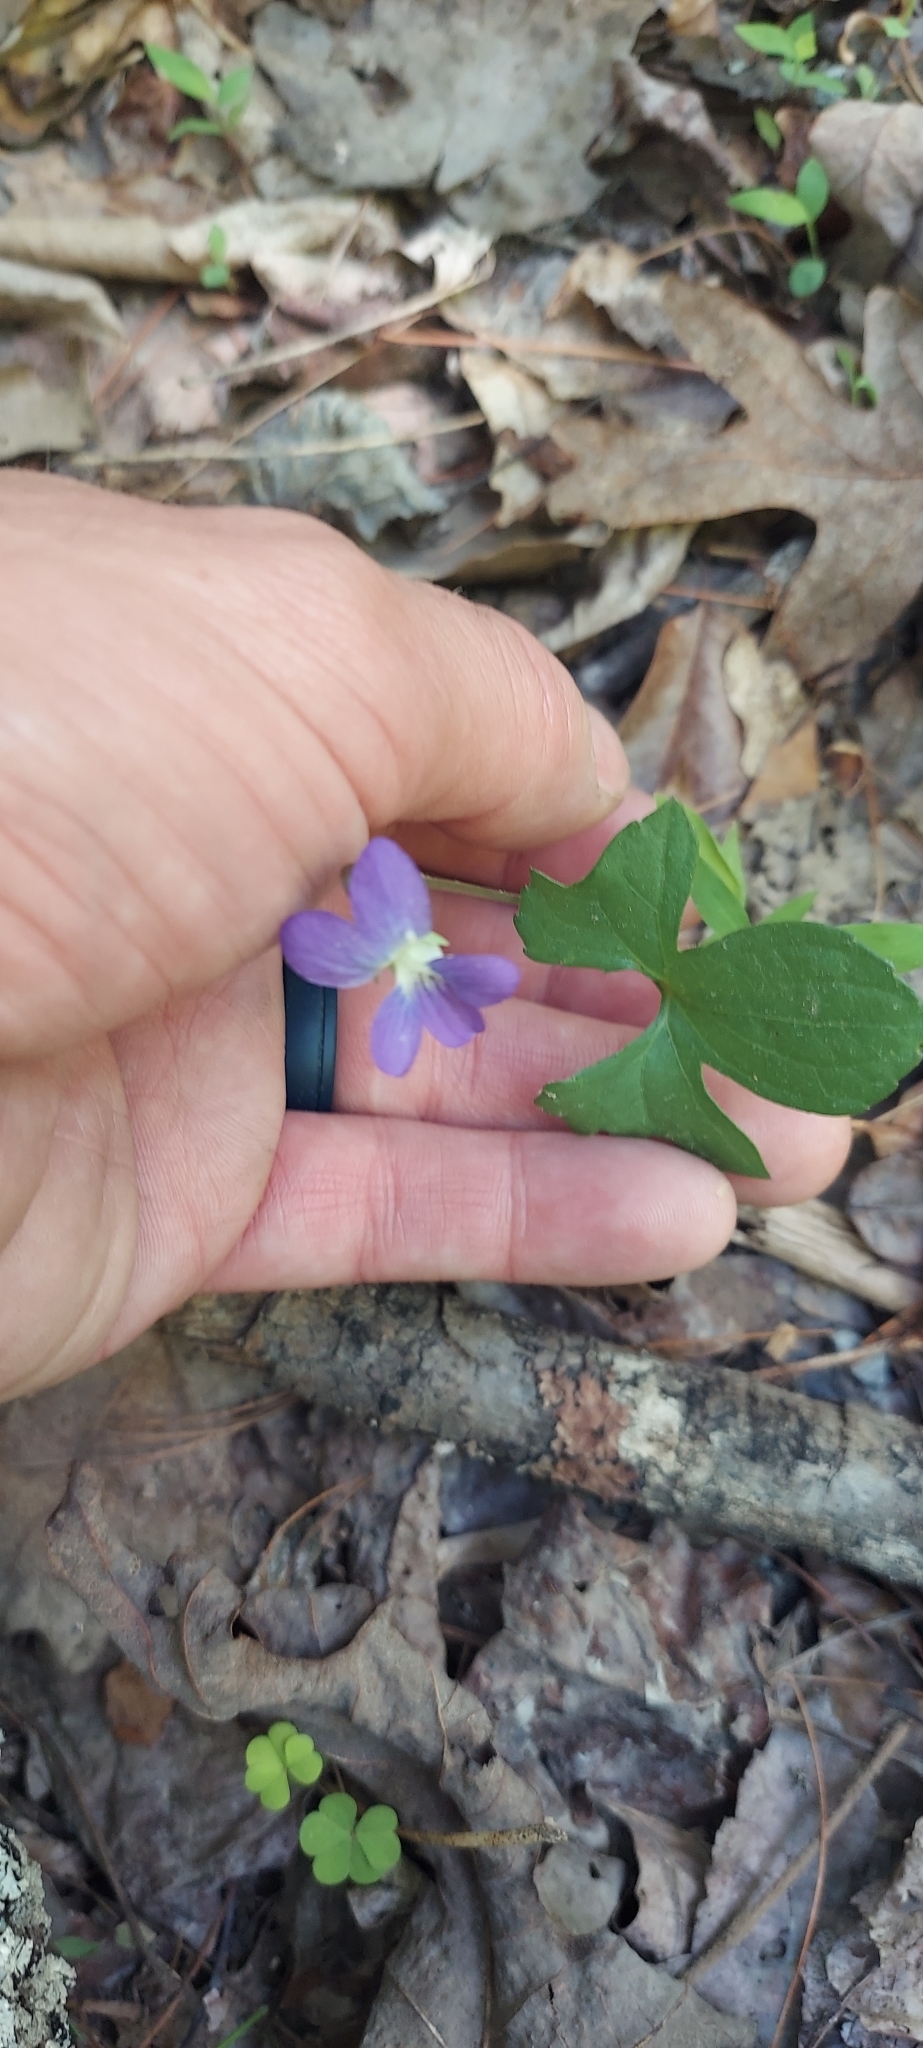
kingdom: Plantae
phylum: Tracheophyta
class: Magnoliopsida
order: Malpighiales
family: Violaceae
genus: Viola
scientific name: Viola palmata
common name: Early blue violet
